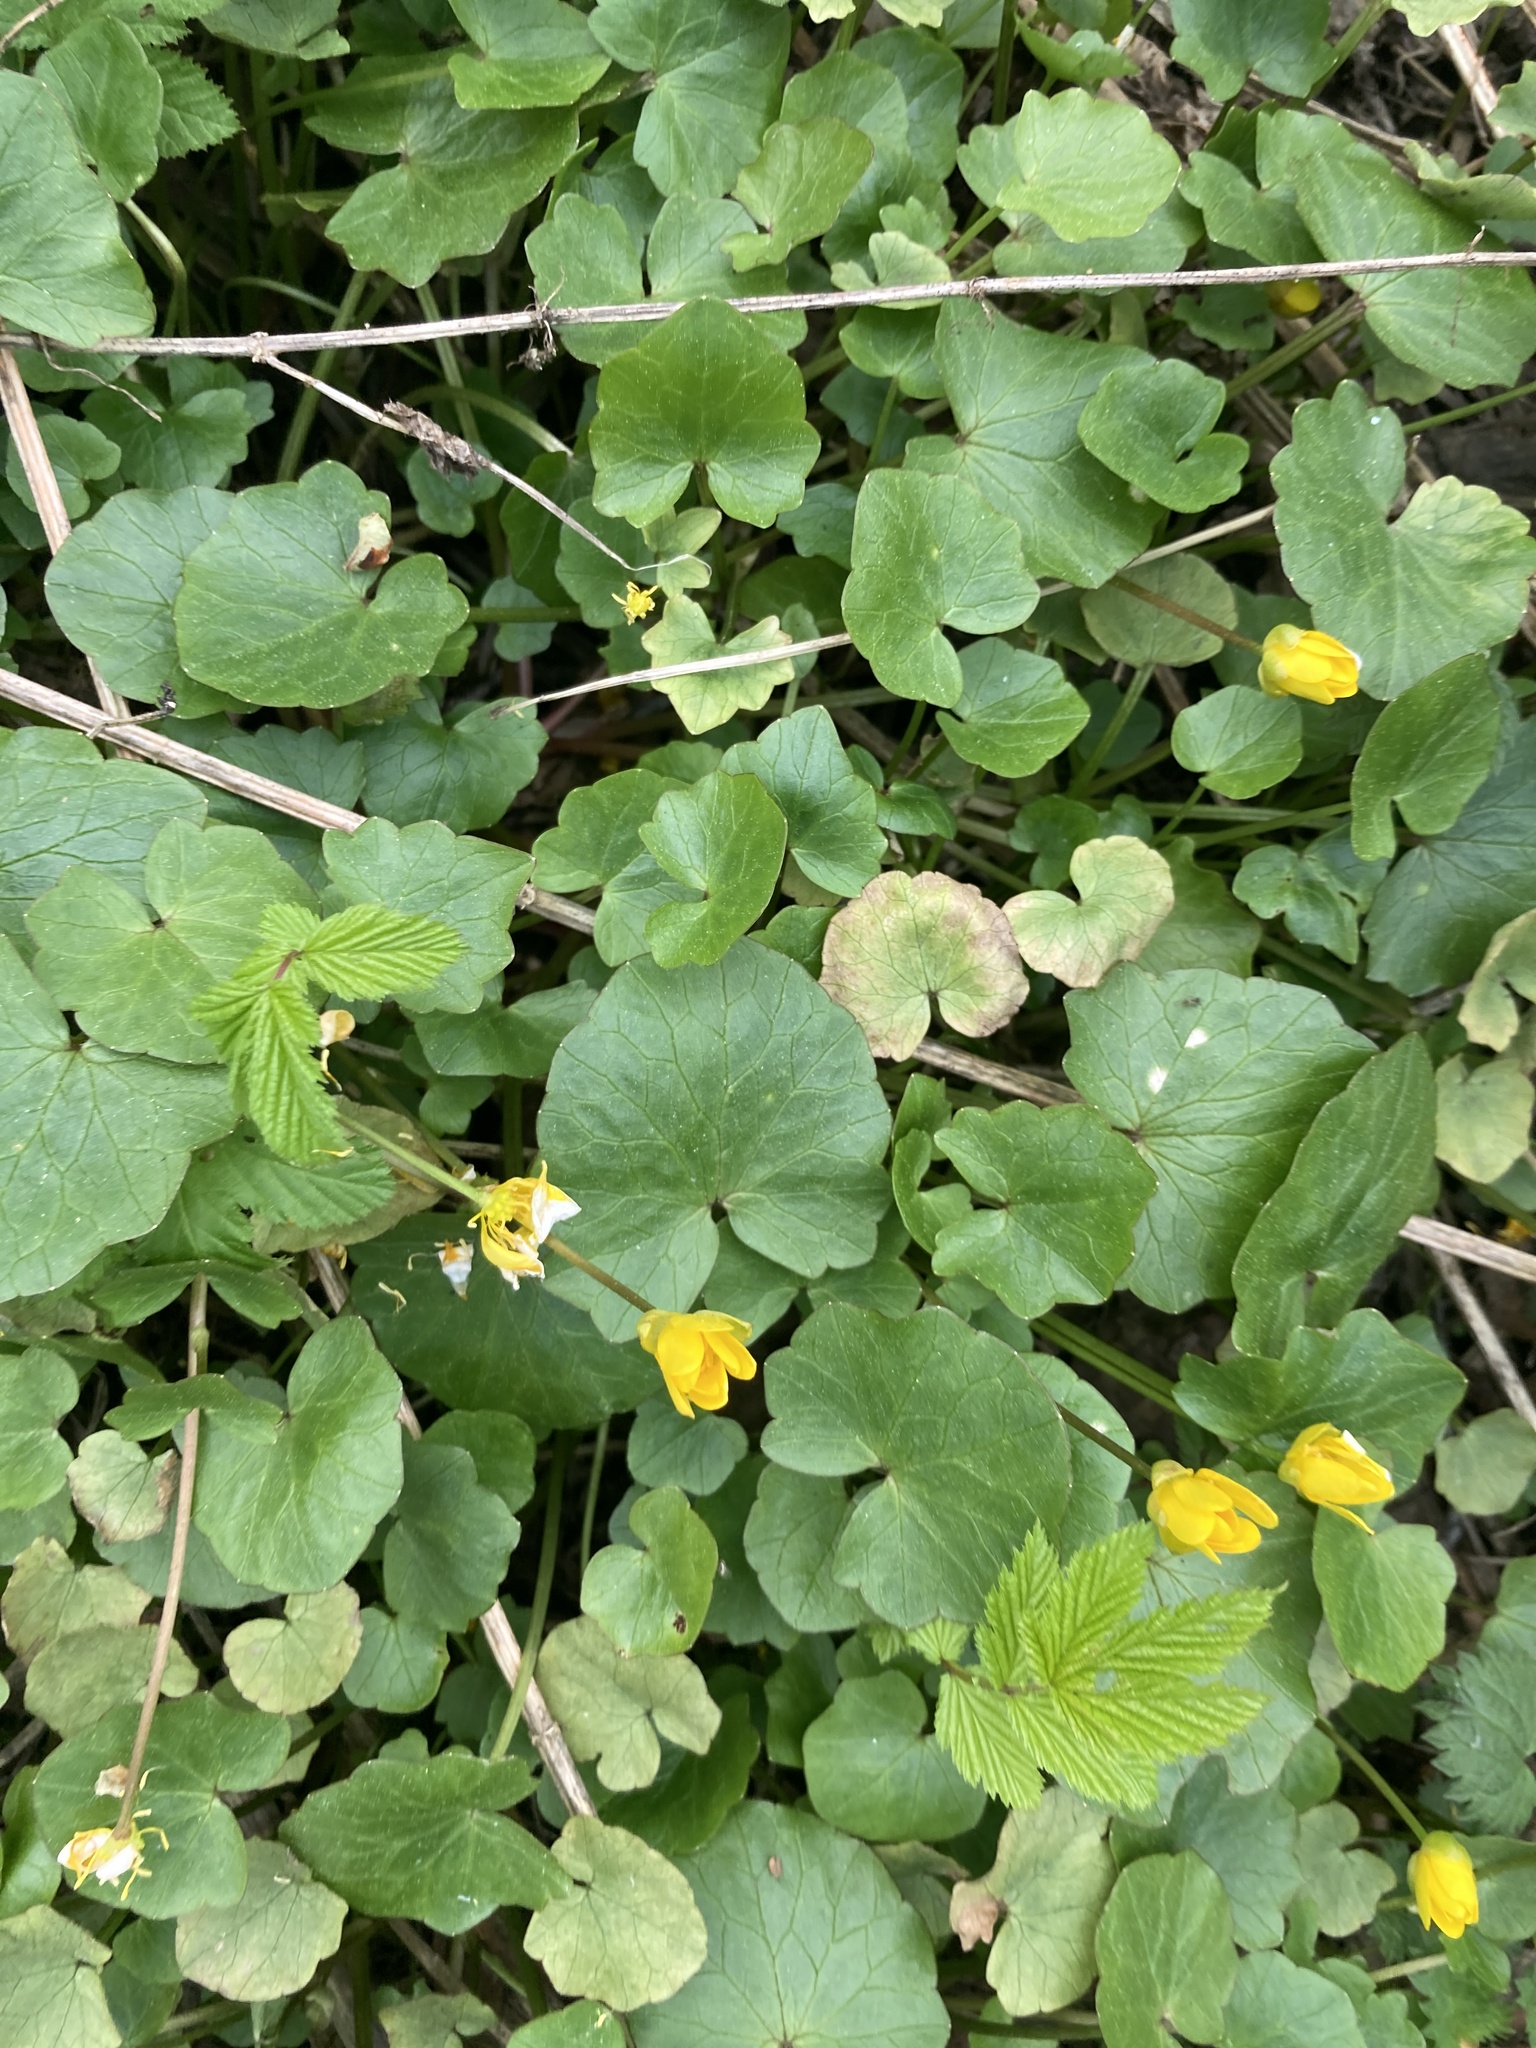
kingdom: Plantae
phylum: Tracheophyta
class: Magnoliopsida
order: Ranunculales
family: Ranunculaceae
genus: Ficaria
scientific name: Ficaria verna
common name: Lesser celandine
